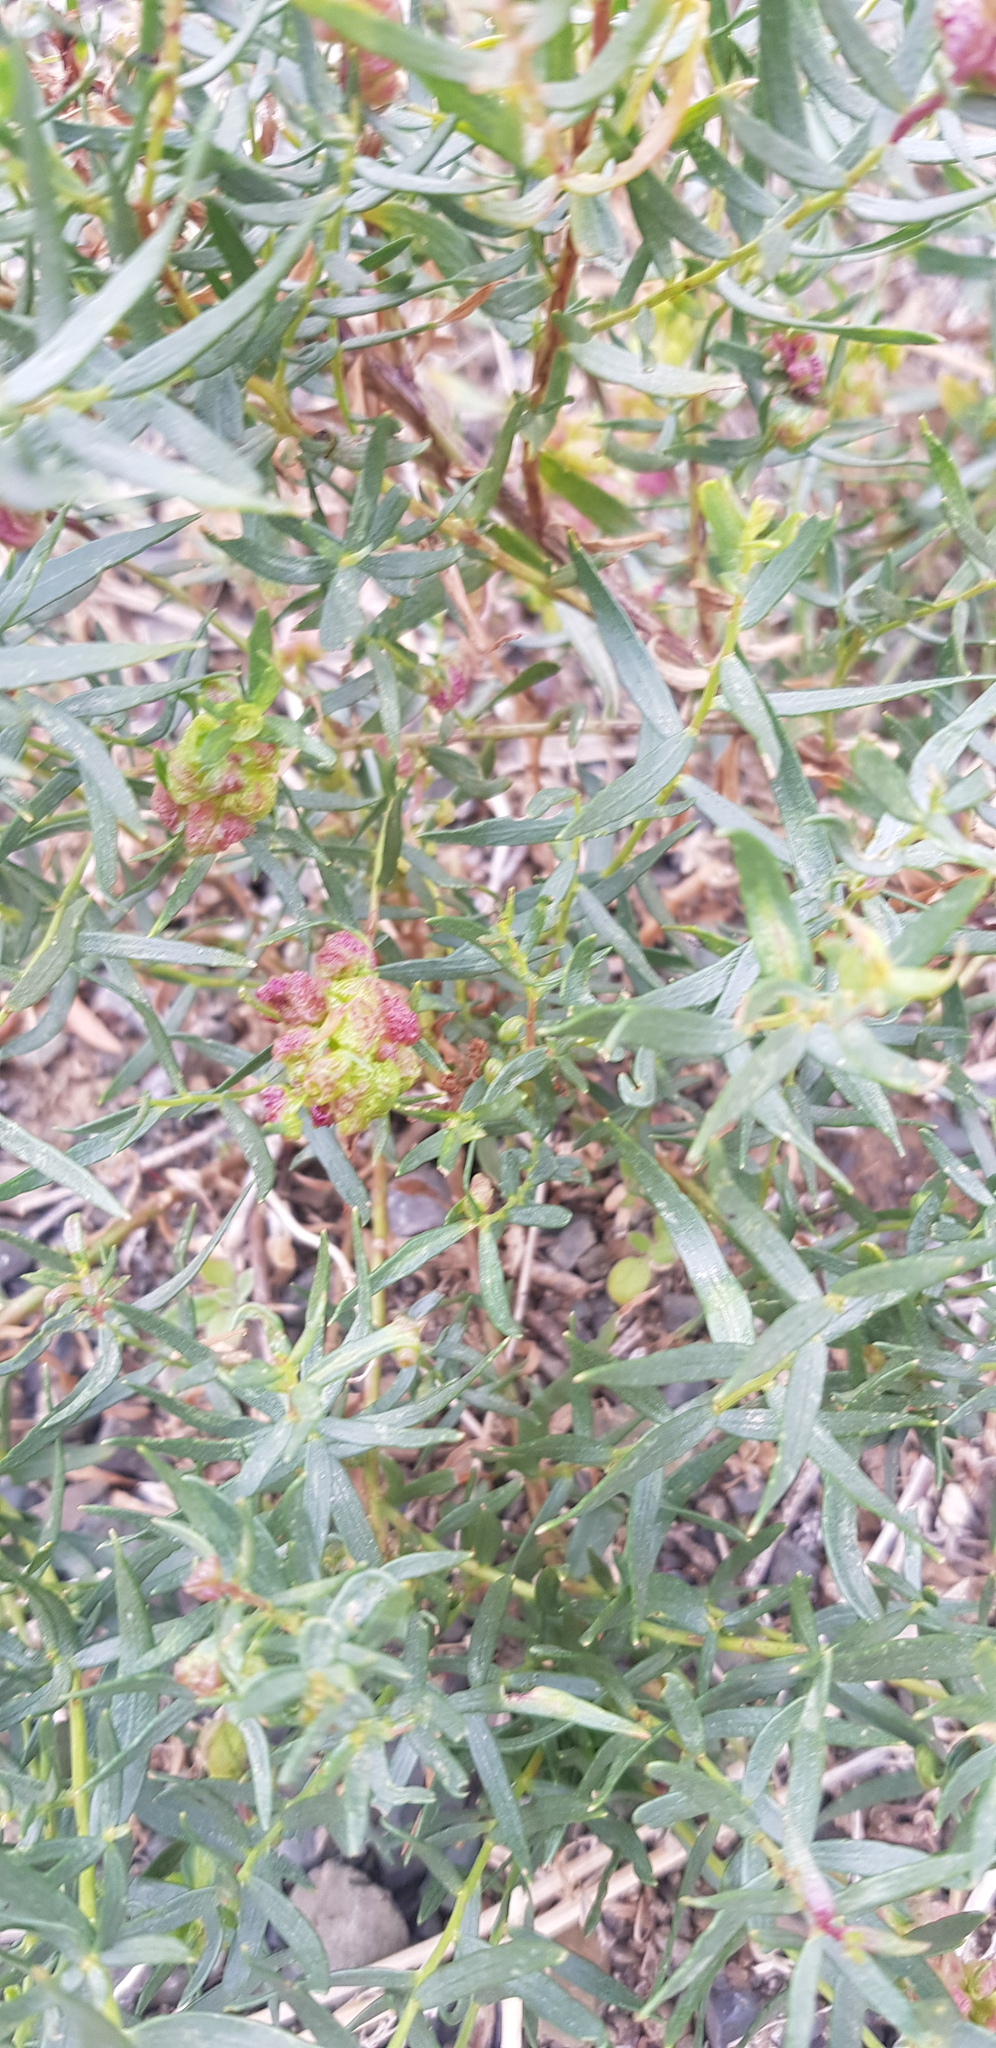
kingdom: Plantae
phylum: Tracheophyta
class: Magnoliopsida
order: Caryophyllales
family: Polygonaceae
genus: Atraphaxis
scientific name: Atraphaxis pungens
